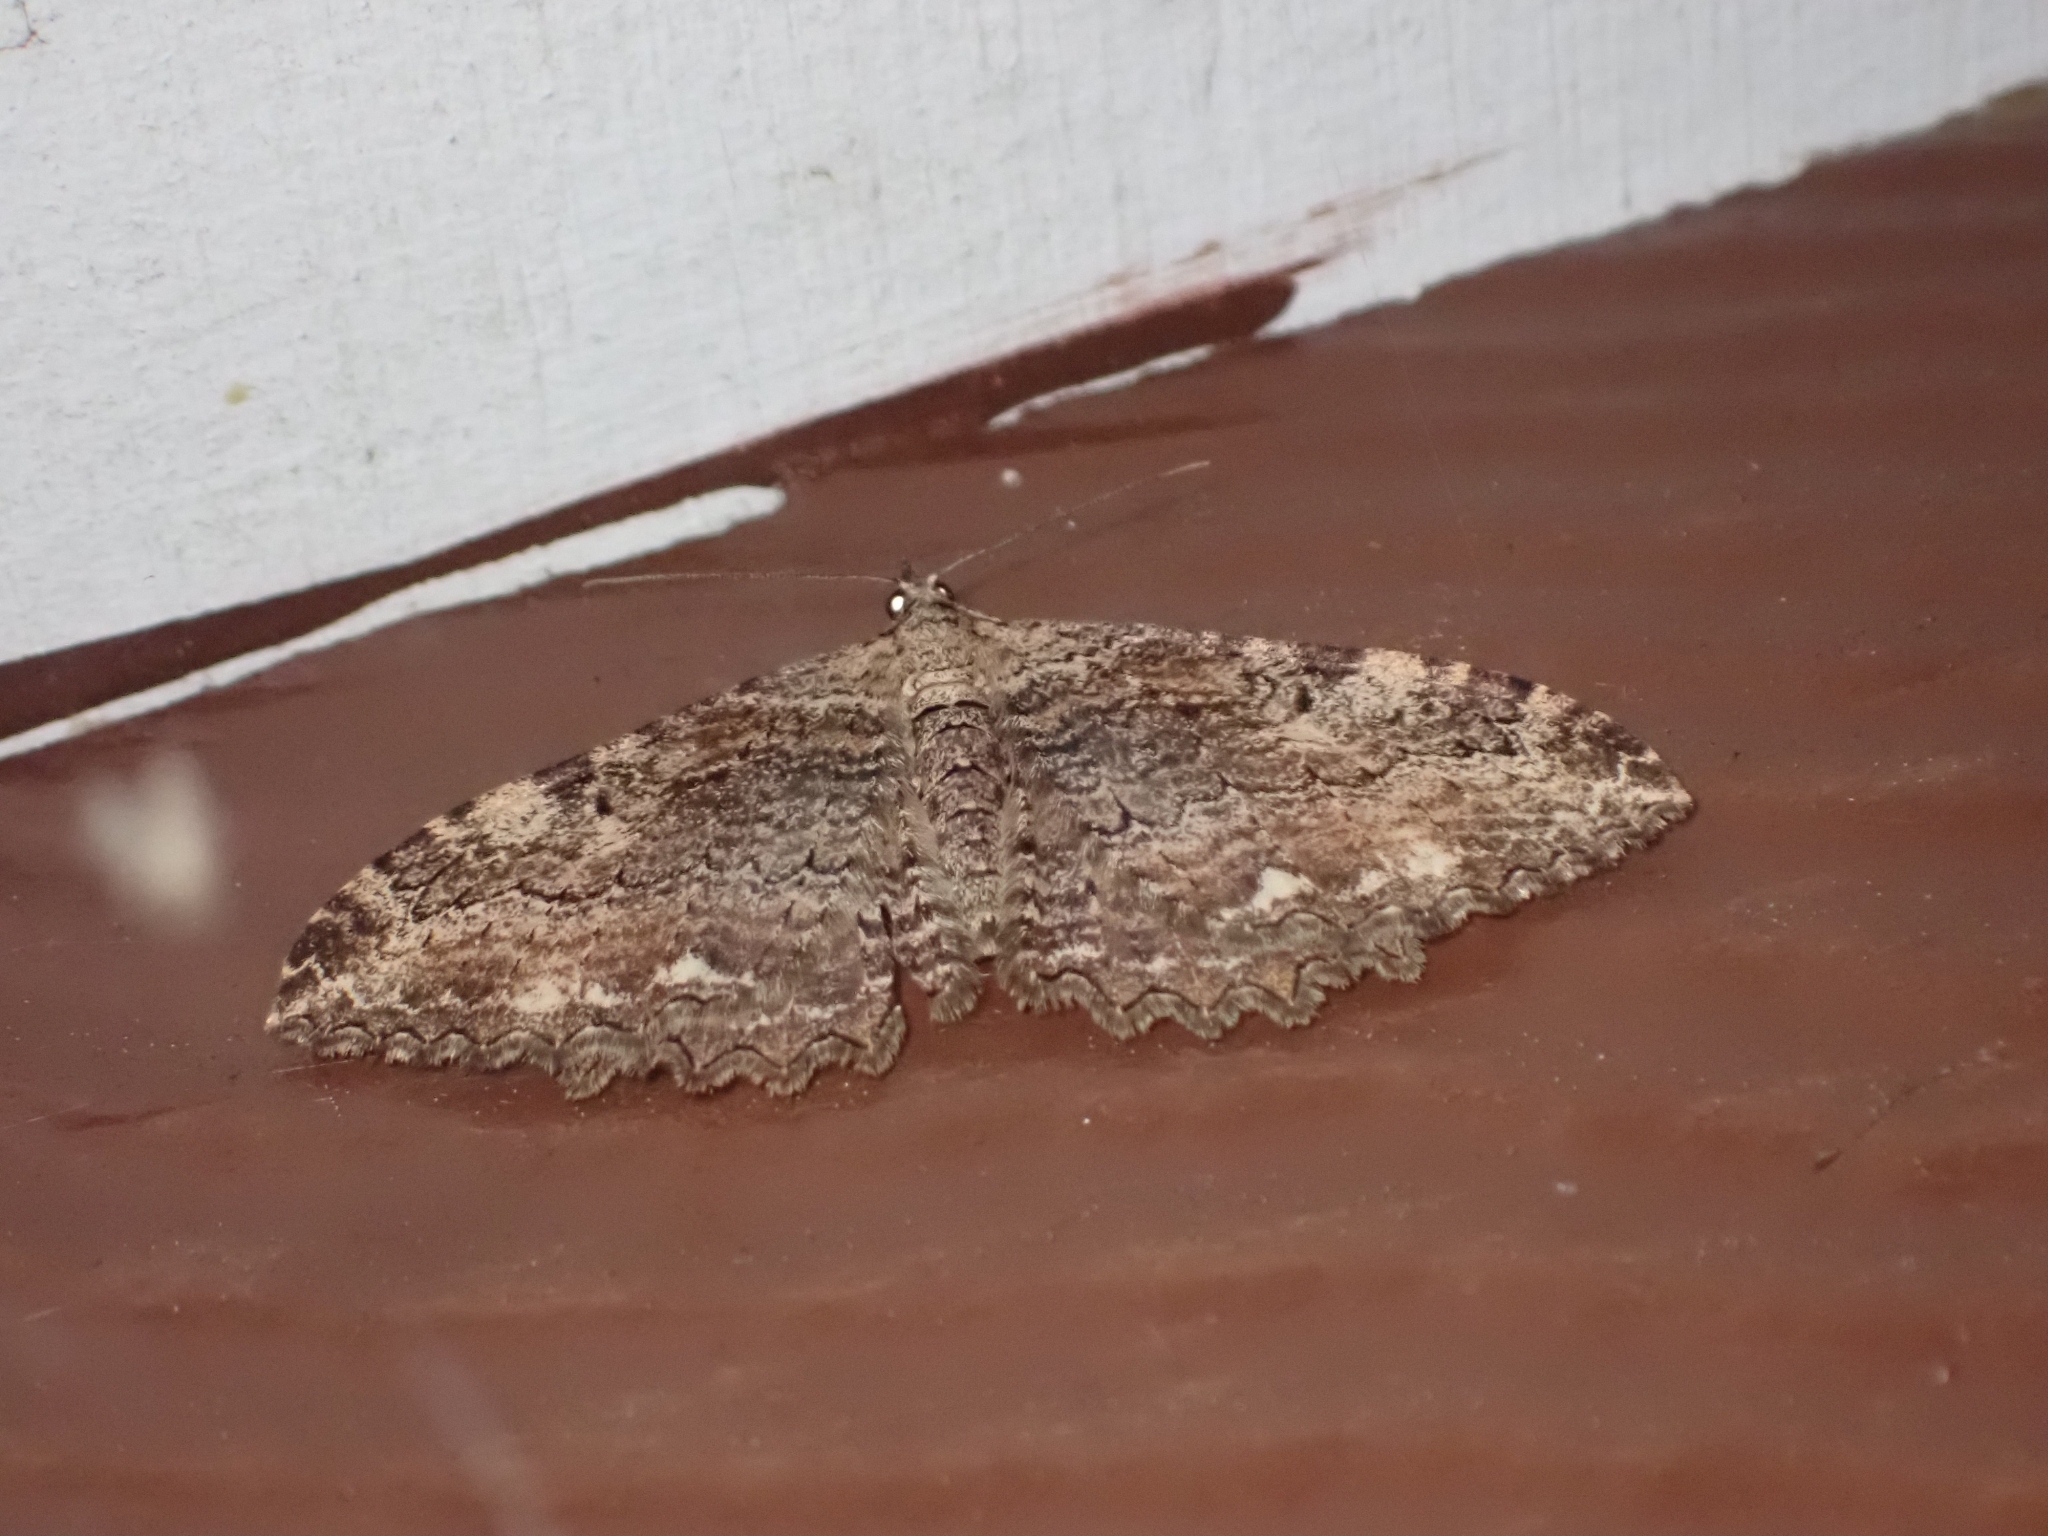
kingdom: Animalia
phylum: Arthropoda
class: Insecta
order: Lepidoptera
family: Geometridae
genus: Rheumaptera
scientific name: Rheumaptera
